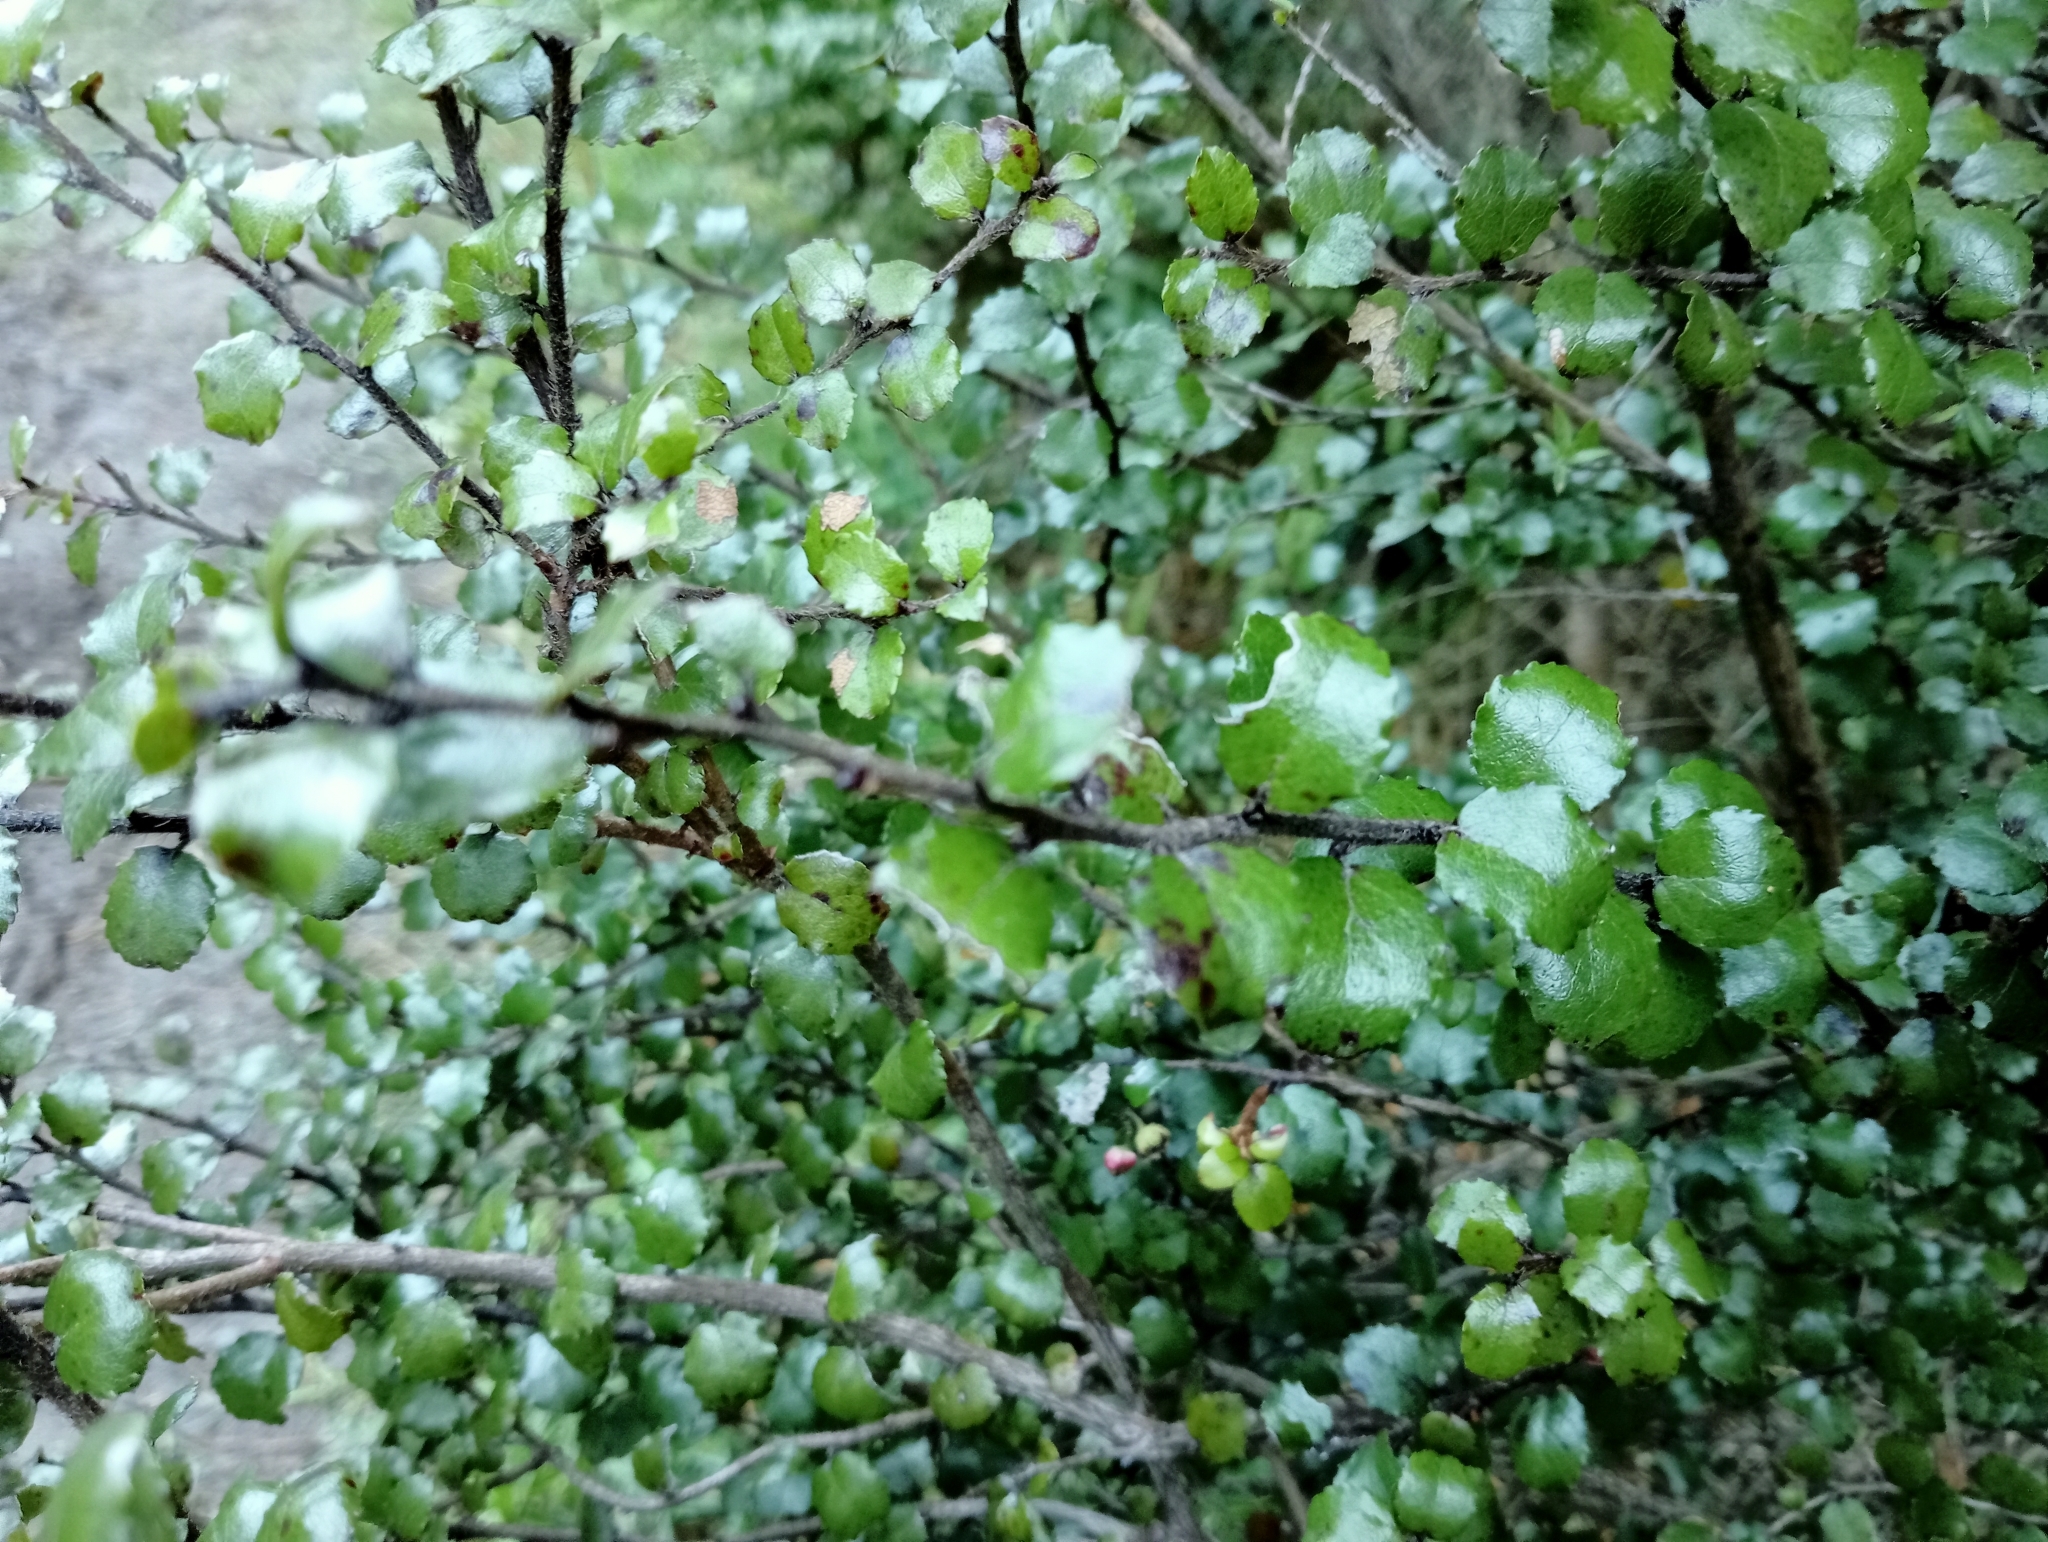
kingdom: Plantae
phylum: Tracheophyta
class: Magnoliopsida
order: Ericales
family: Ericaceae
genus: Gaultheria
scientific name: Gaultheria antipoda
